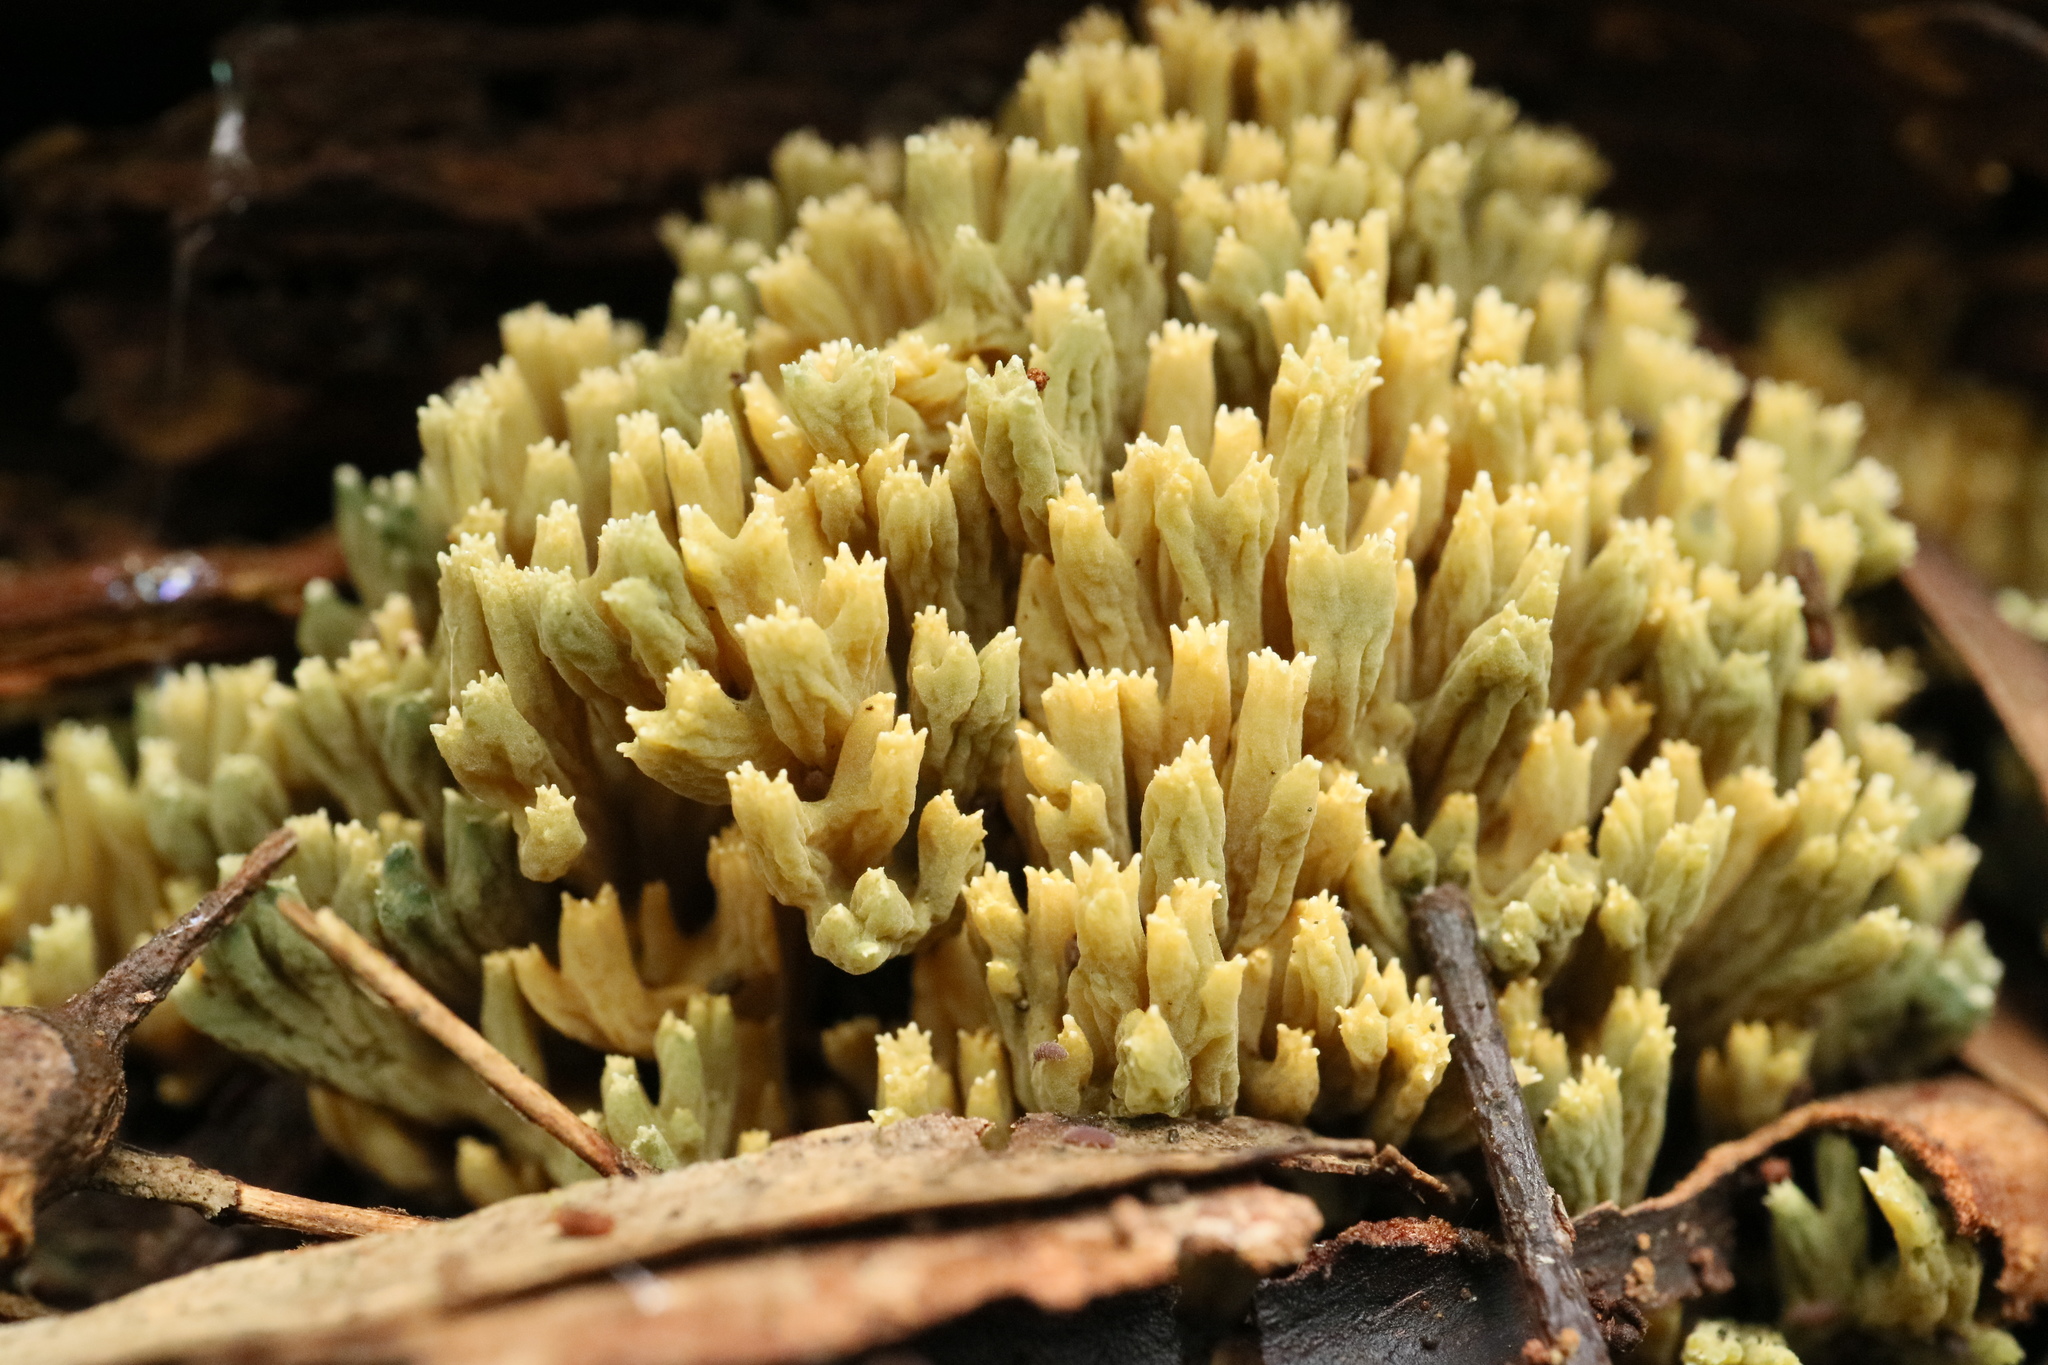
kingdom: Fungi
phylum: Basidiomycota
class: Agaricomycetes
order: Gomphales
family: Gomphaceae
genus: Phaeoclavulina
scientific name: Phaeoclavulina
